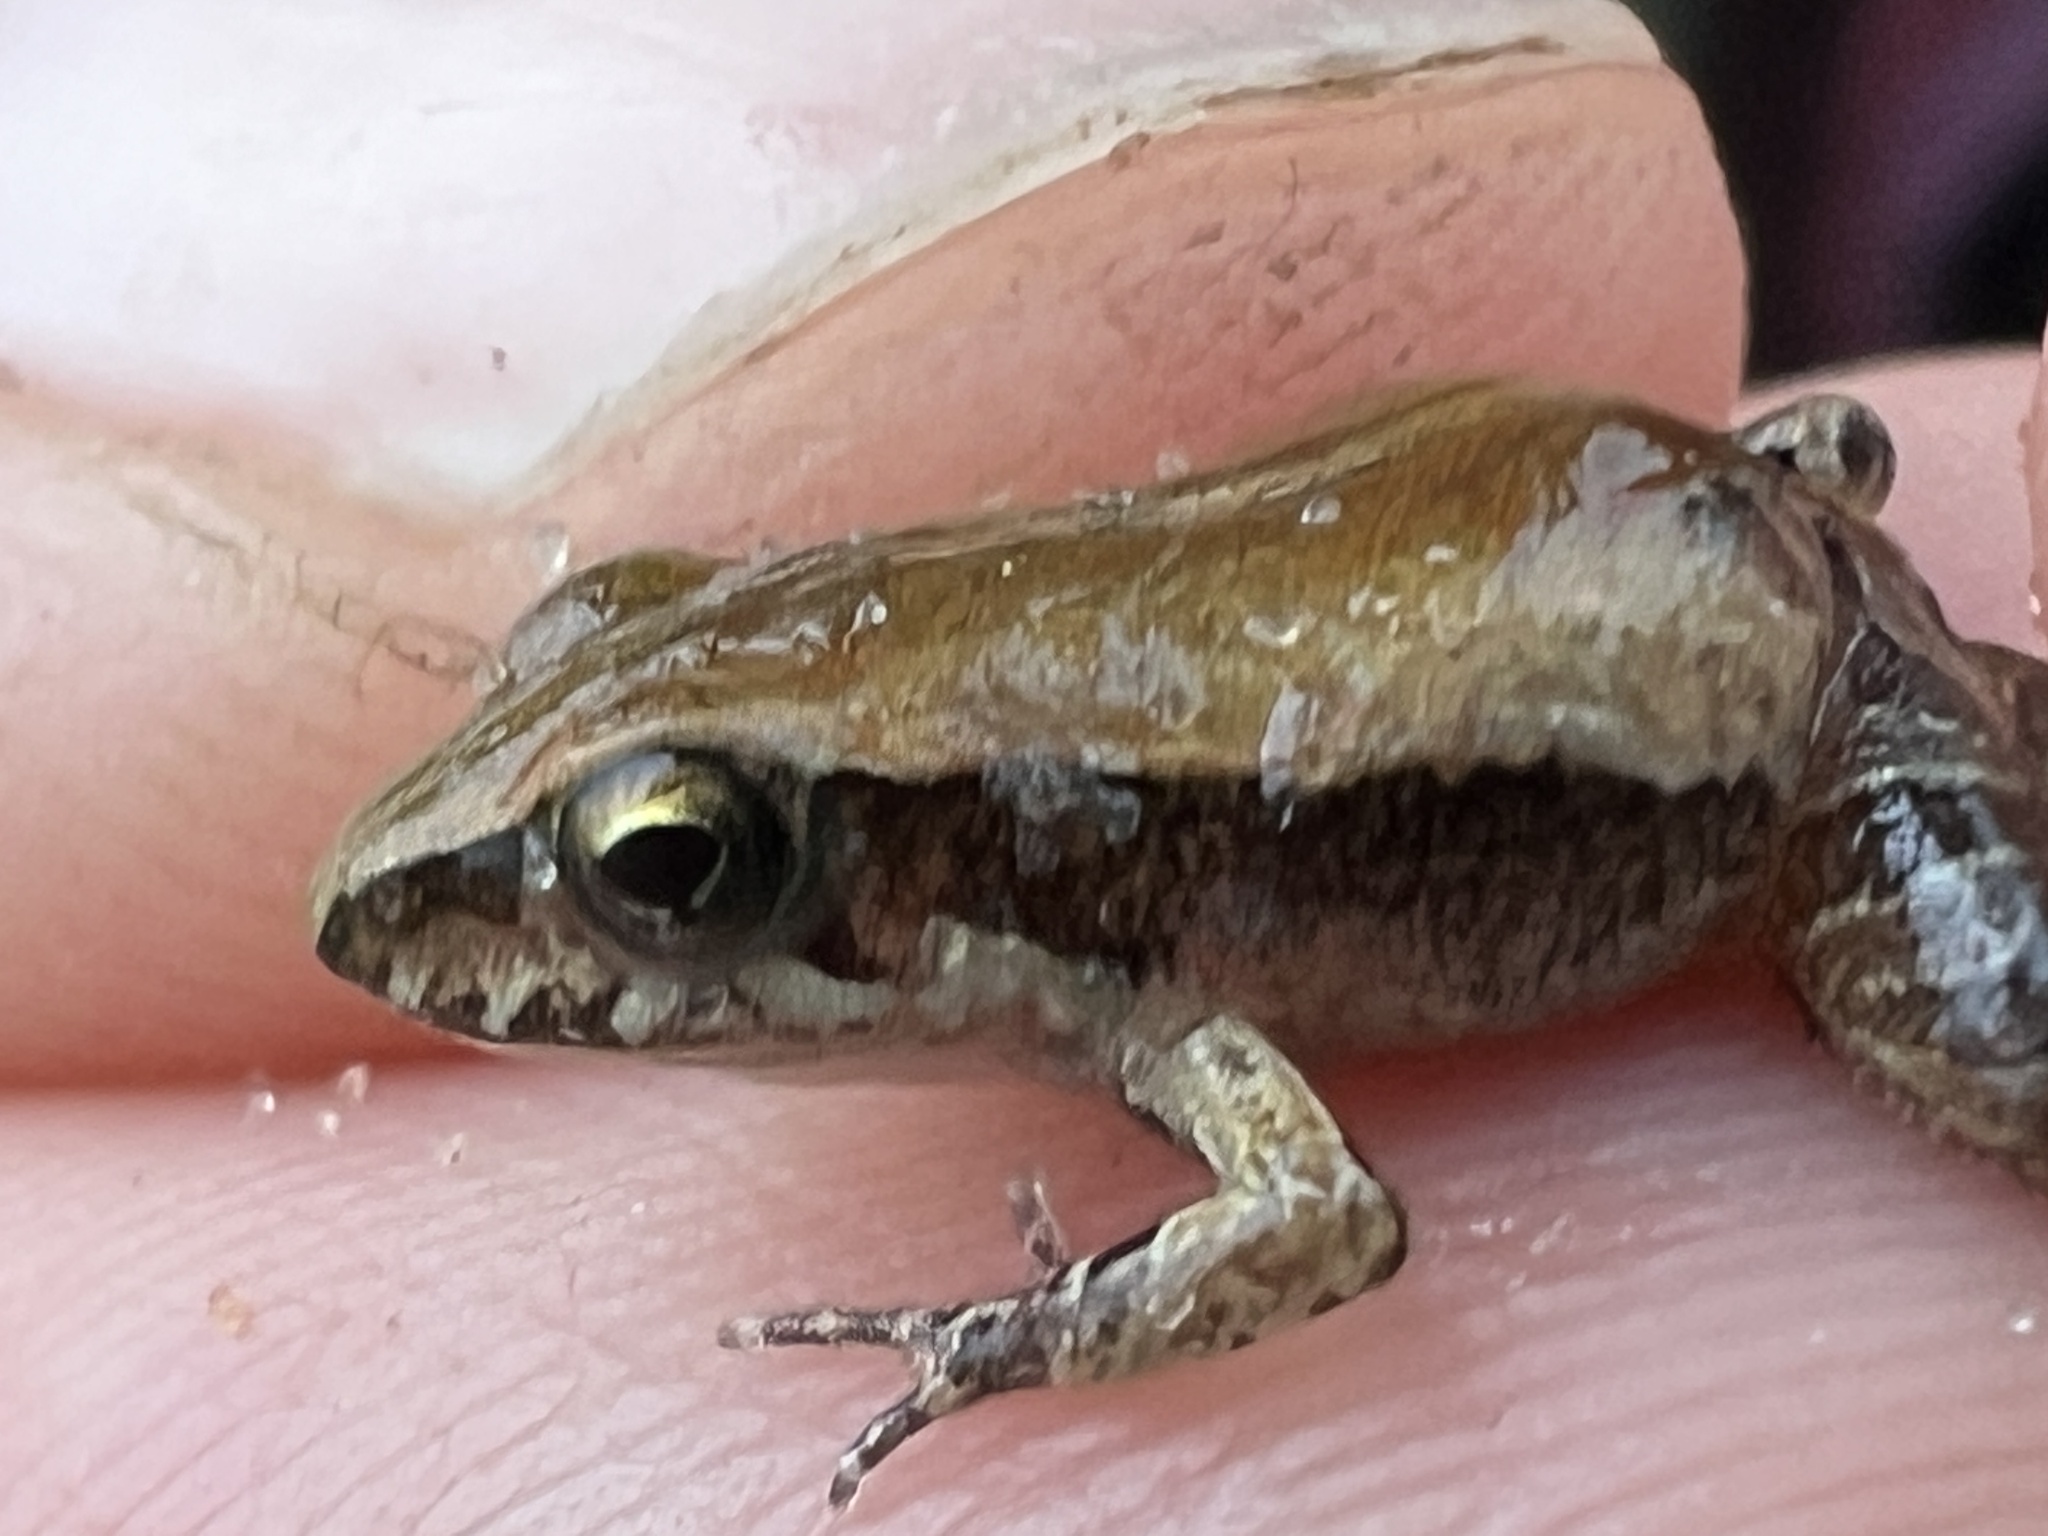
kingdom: Animalia
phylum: Chordata
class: Amphibia
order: Anura
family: Leptodactylidae
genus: Physalaemus
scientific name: Physalaemus cuvieri
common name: Barker frog
